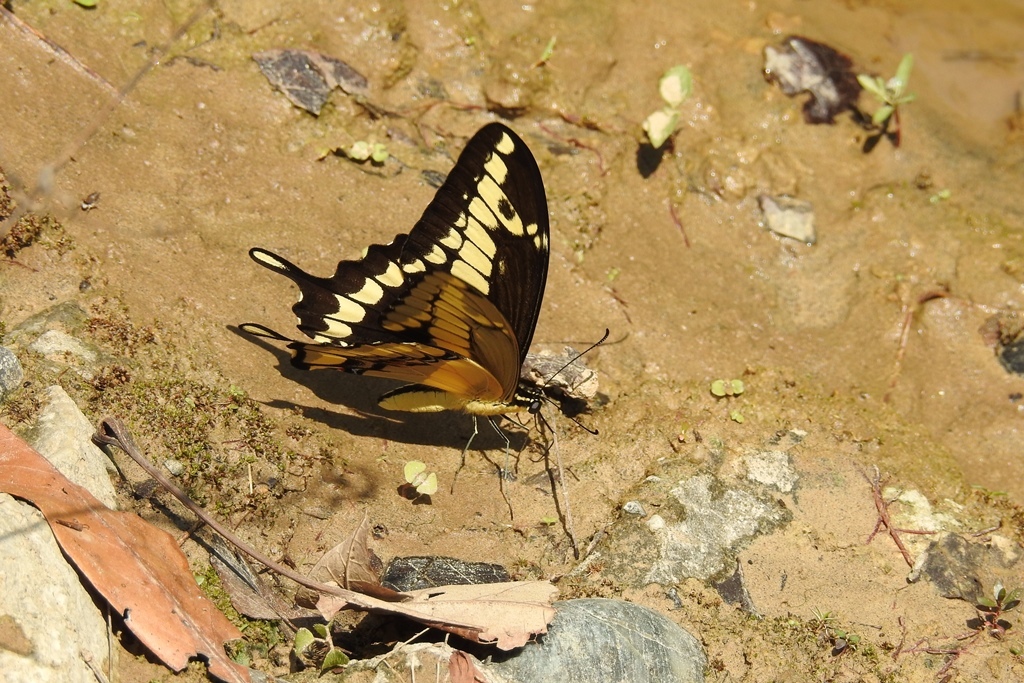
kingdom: Animalia
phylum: Arthropoda
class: Insecta
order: Lepidoptera
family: Papilionidae
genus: Papilio
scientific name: Papilio thoas
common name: King swallowtail
